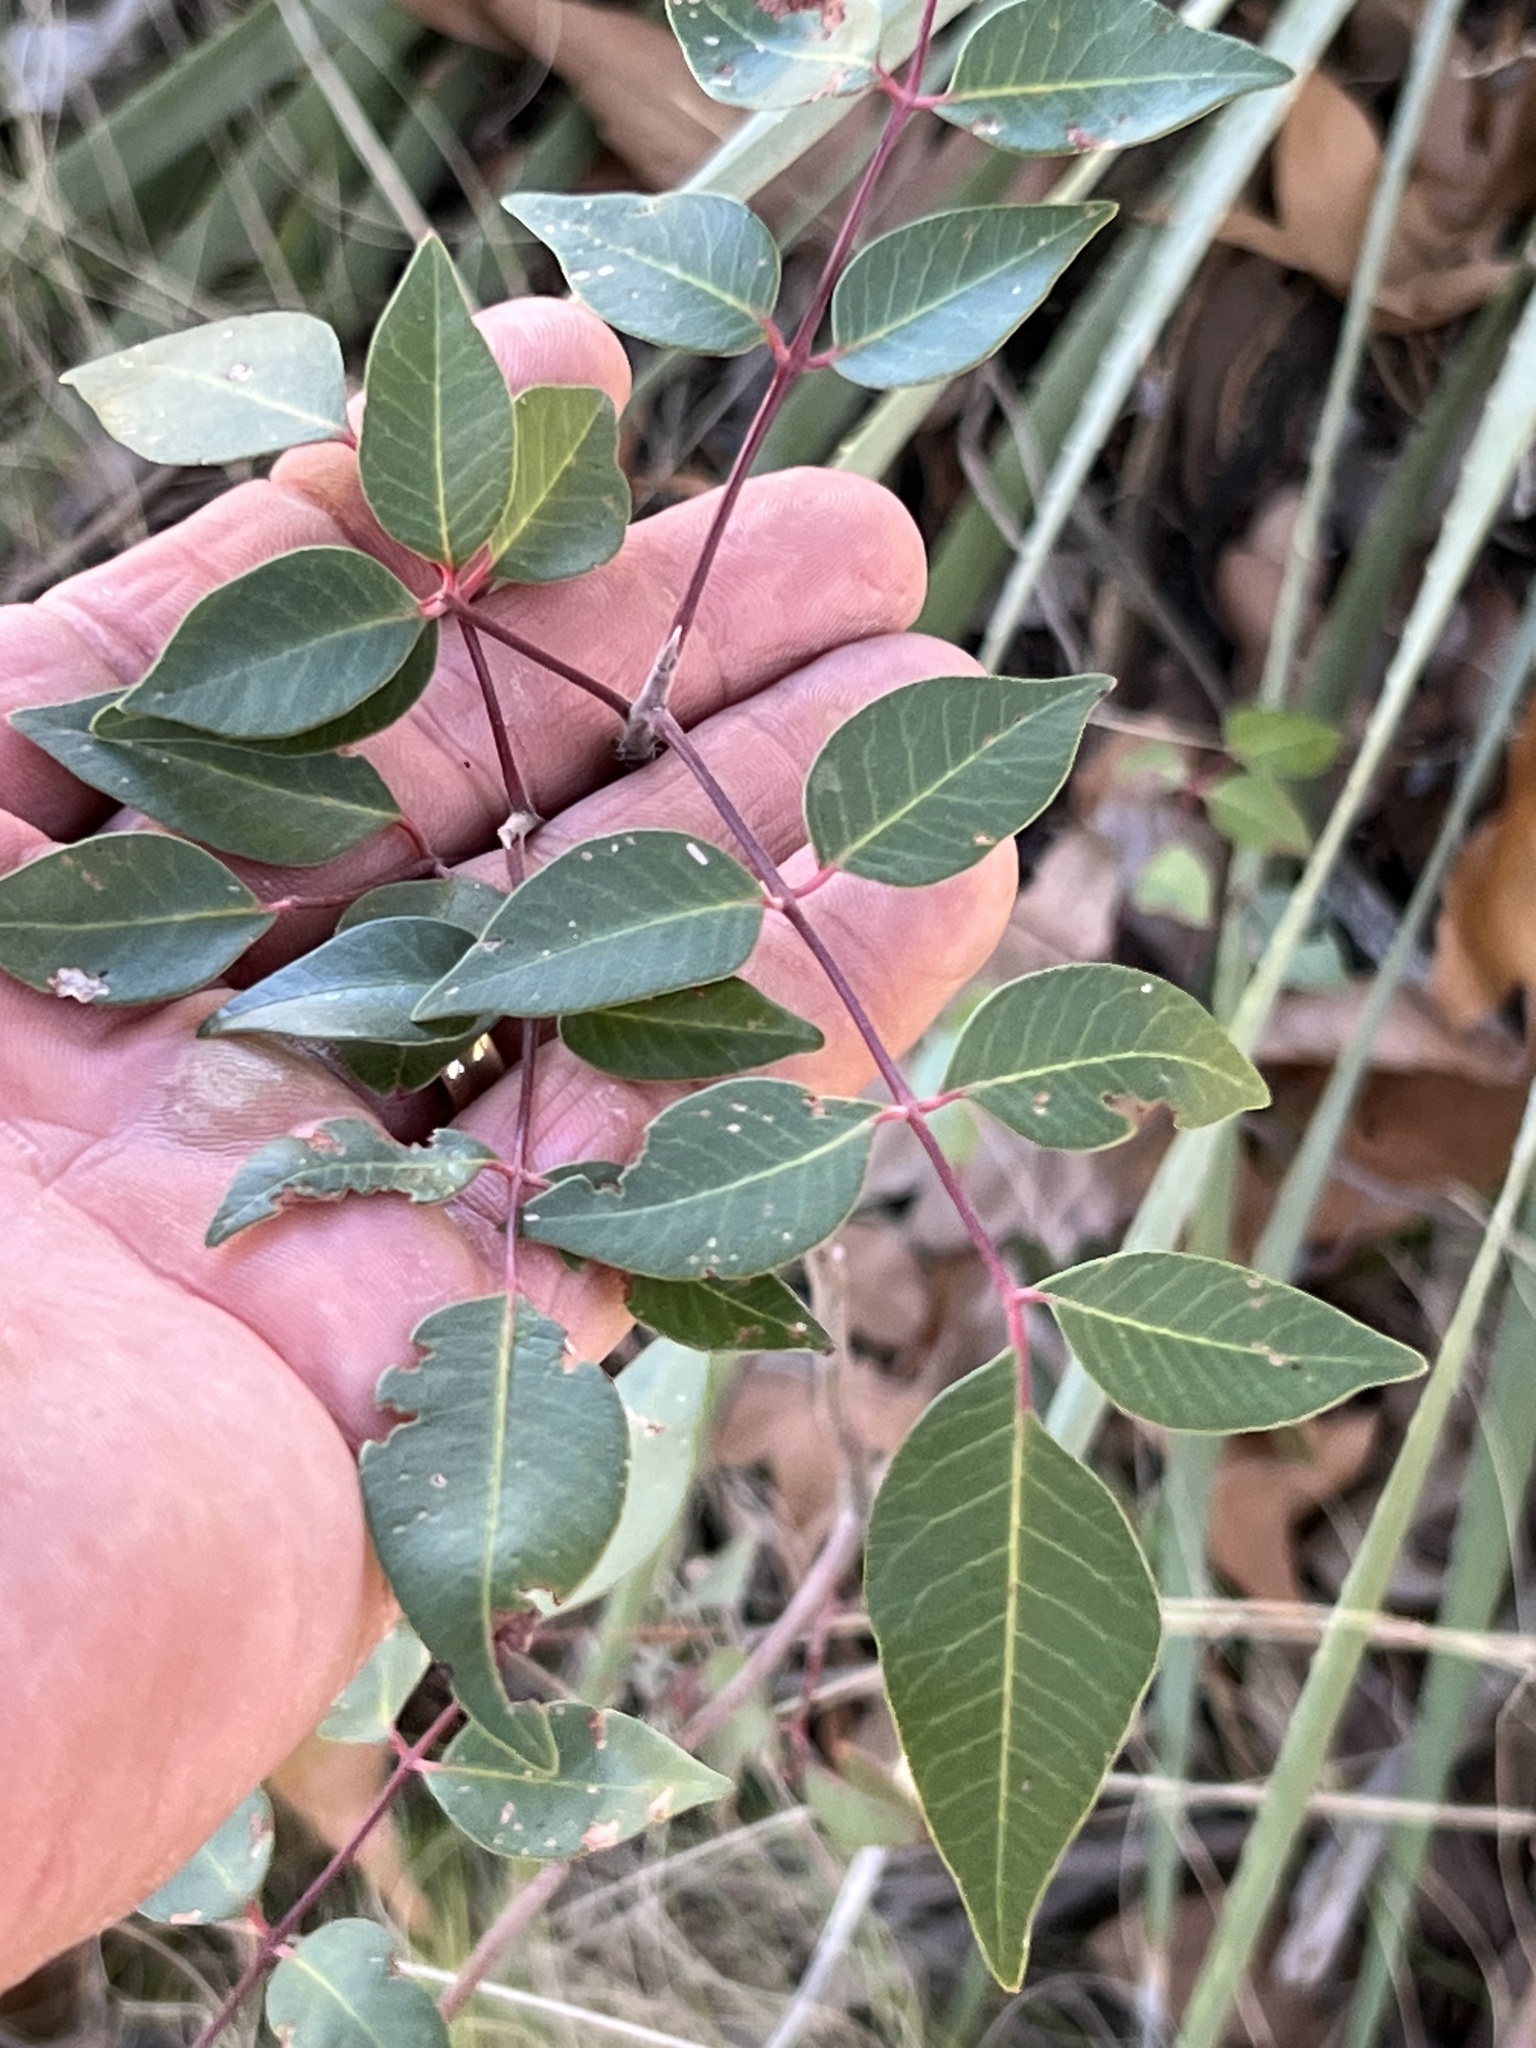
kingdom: Plantae
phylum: Tracheophyta
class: Magnoliopsida
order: Sapindales
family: Anacardiaceae
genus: Rhus
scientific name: Rhus virens
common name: Evergreen sumac
